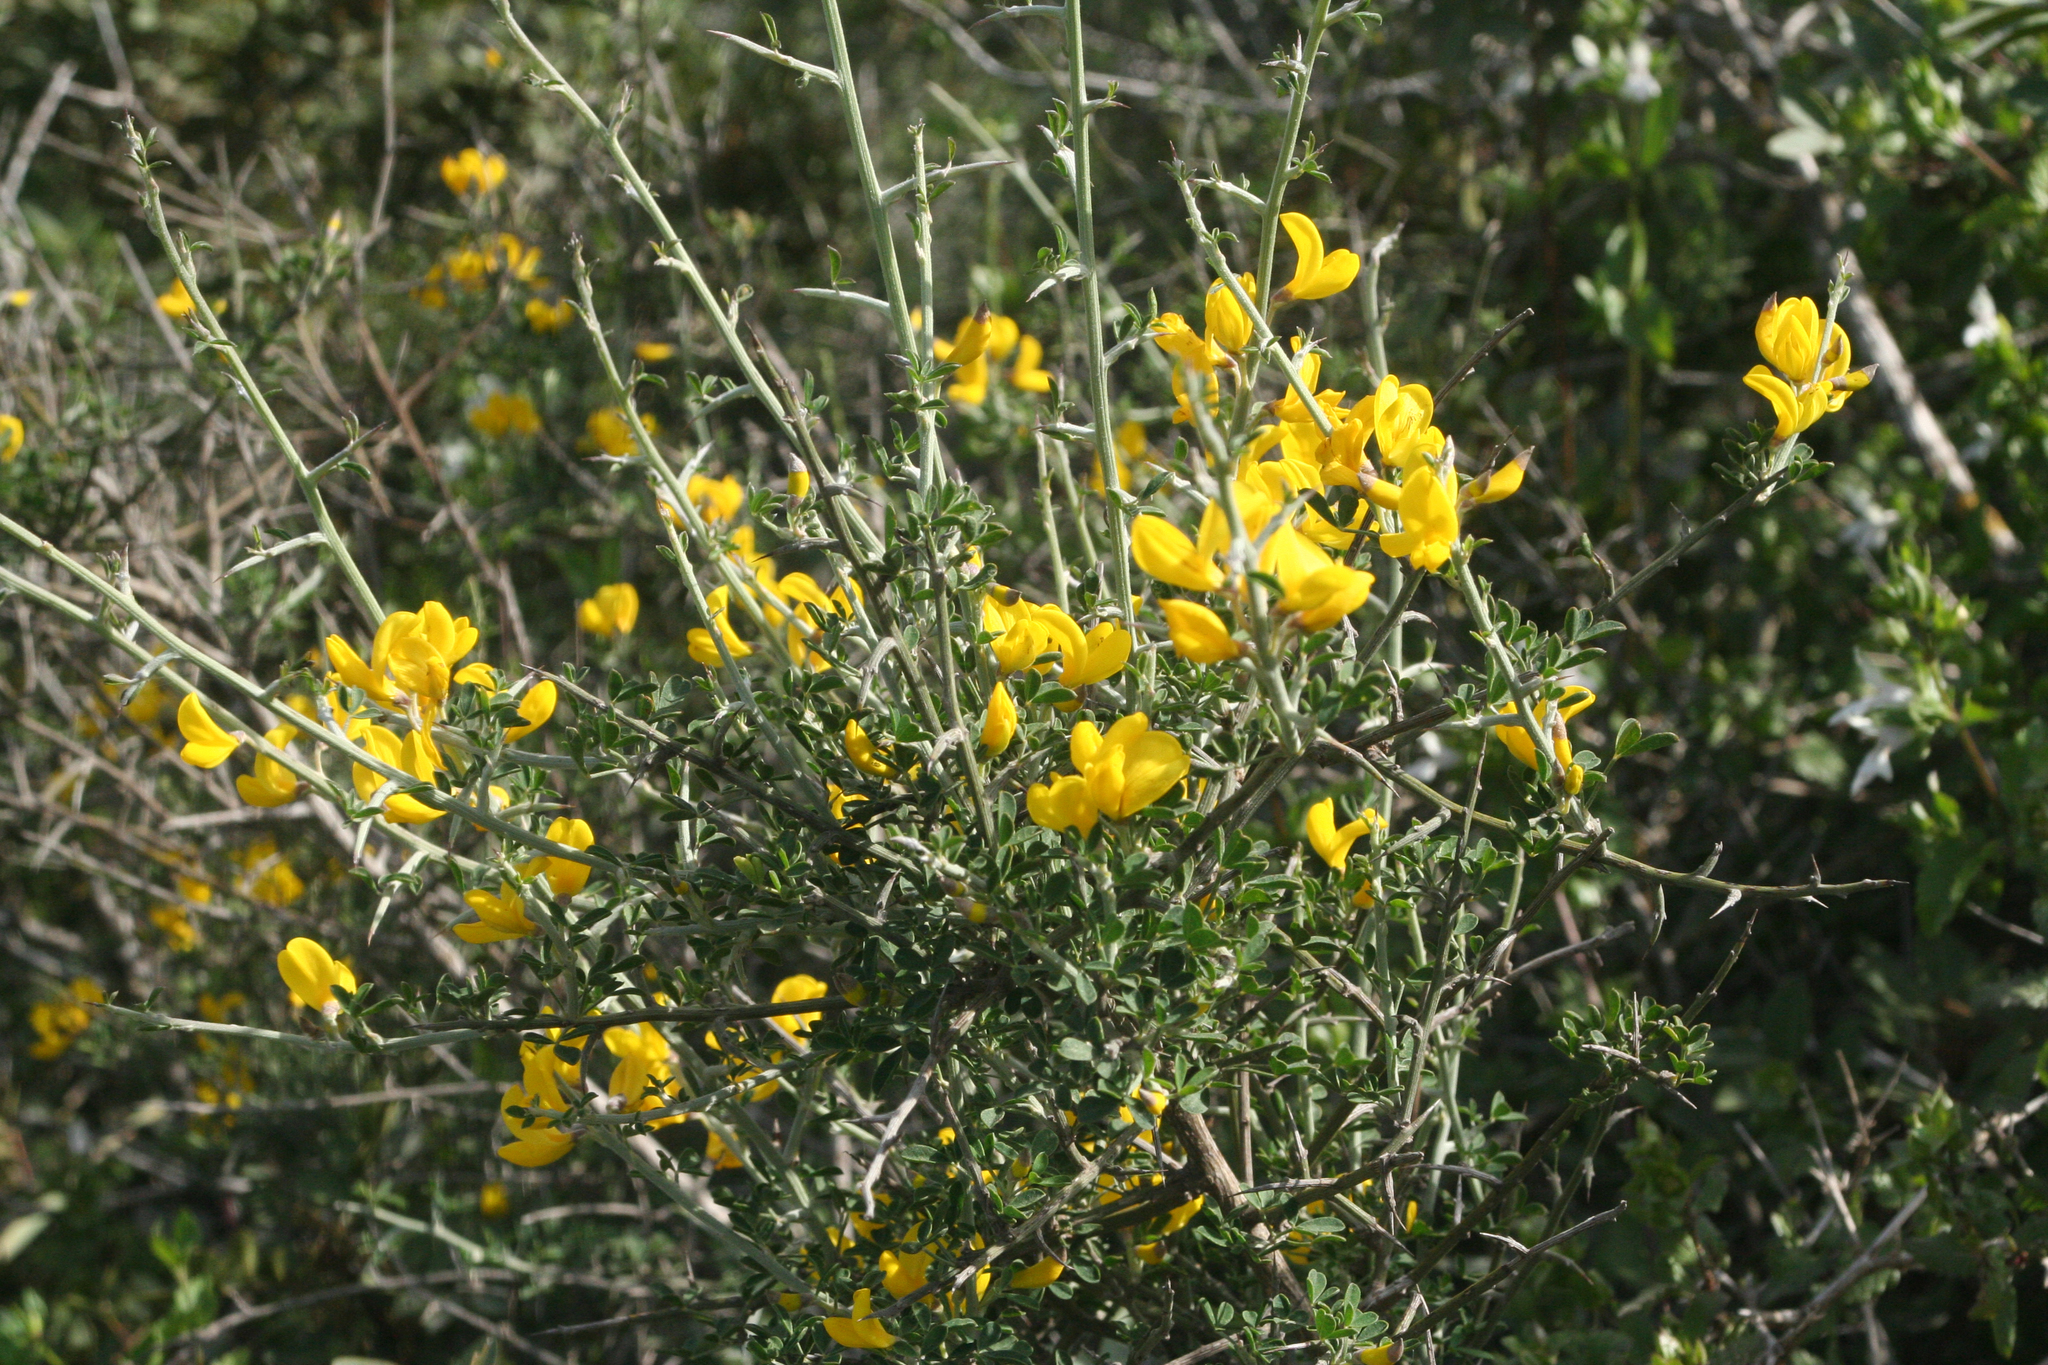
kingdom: Plantae
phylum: Tracheophyta
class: Magnoliopsida
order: Fabales
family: Fabaceae
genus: Calicotome
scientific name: Calicotome villosa
